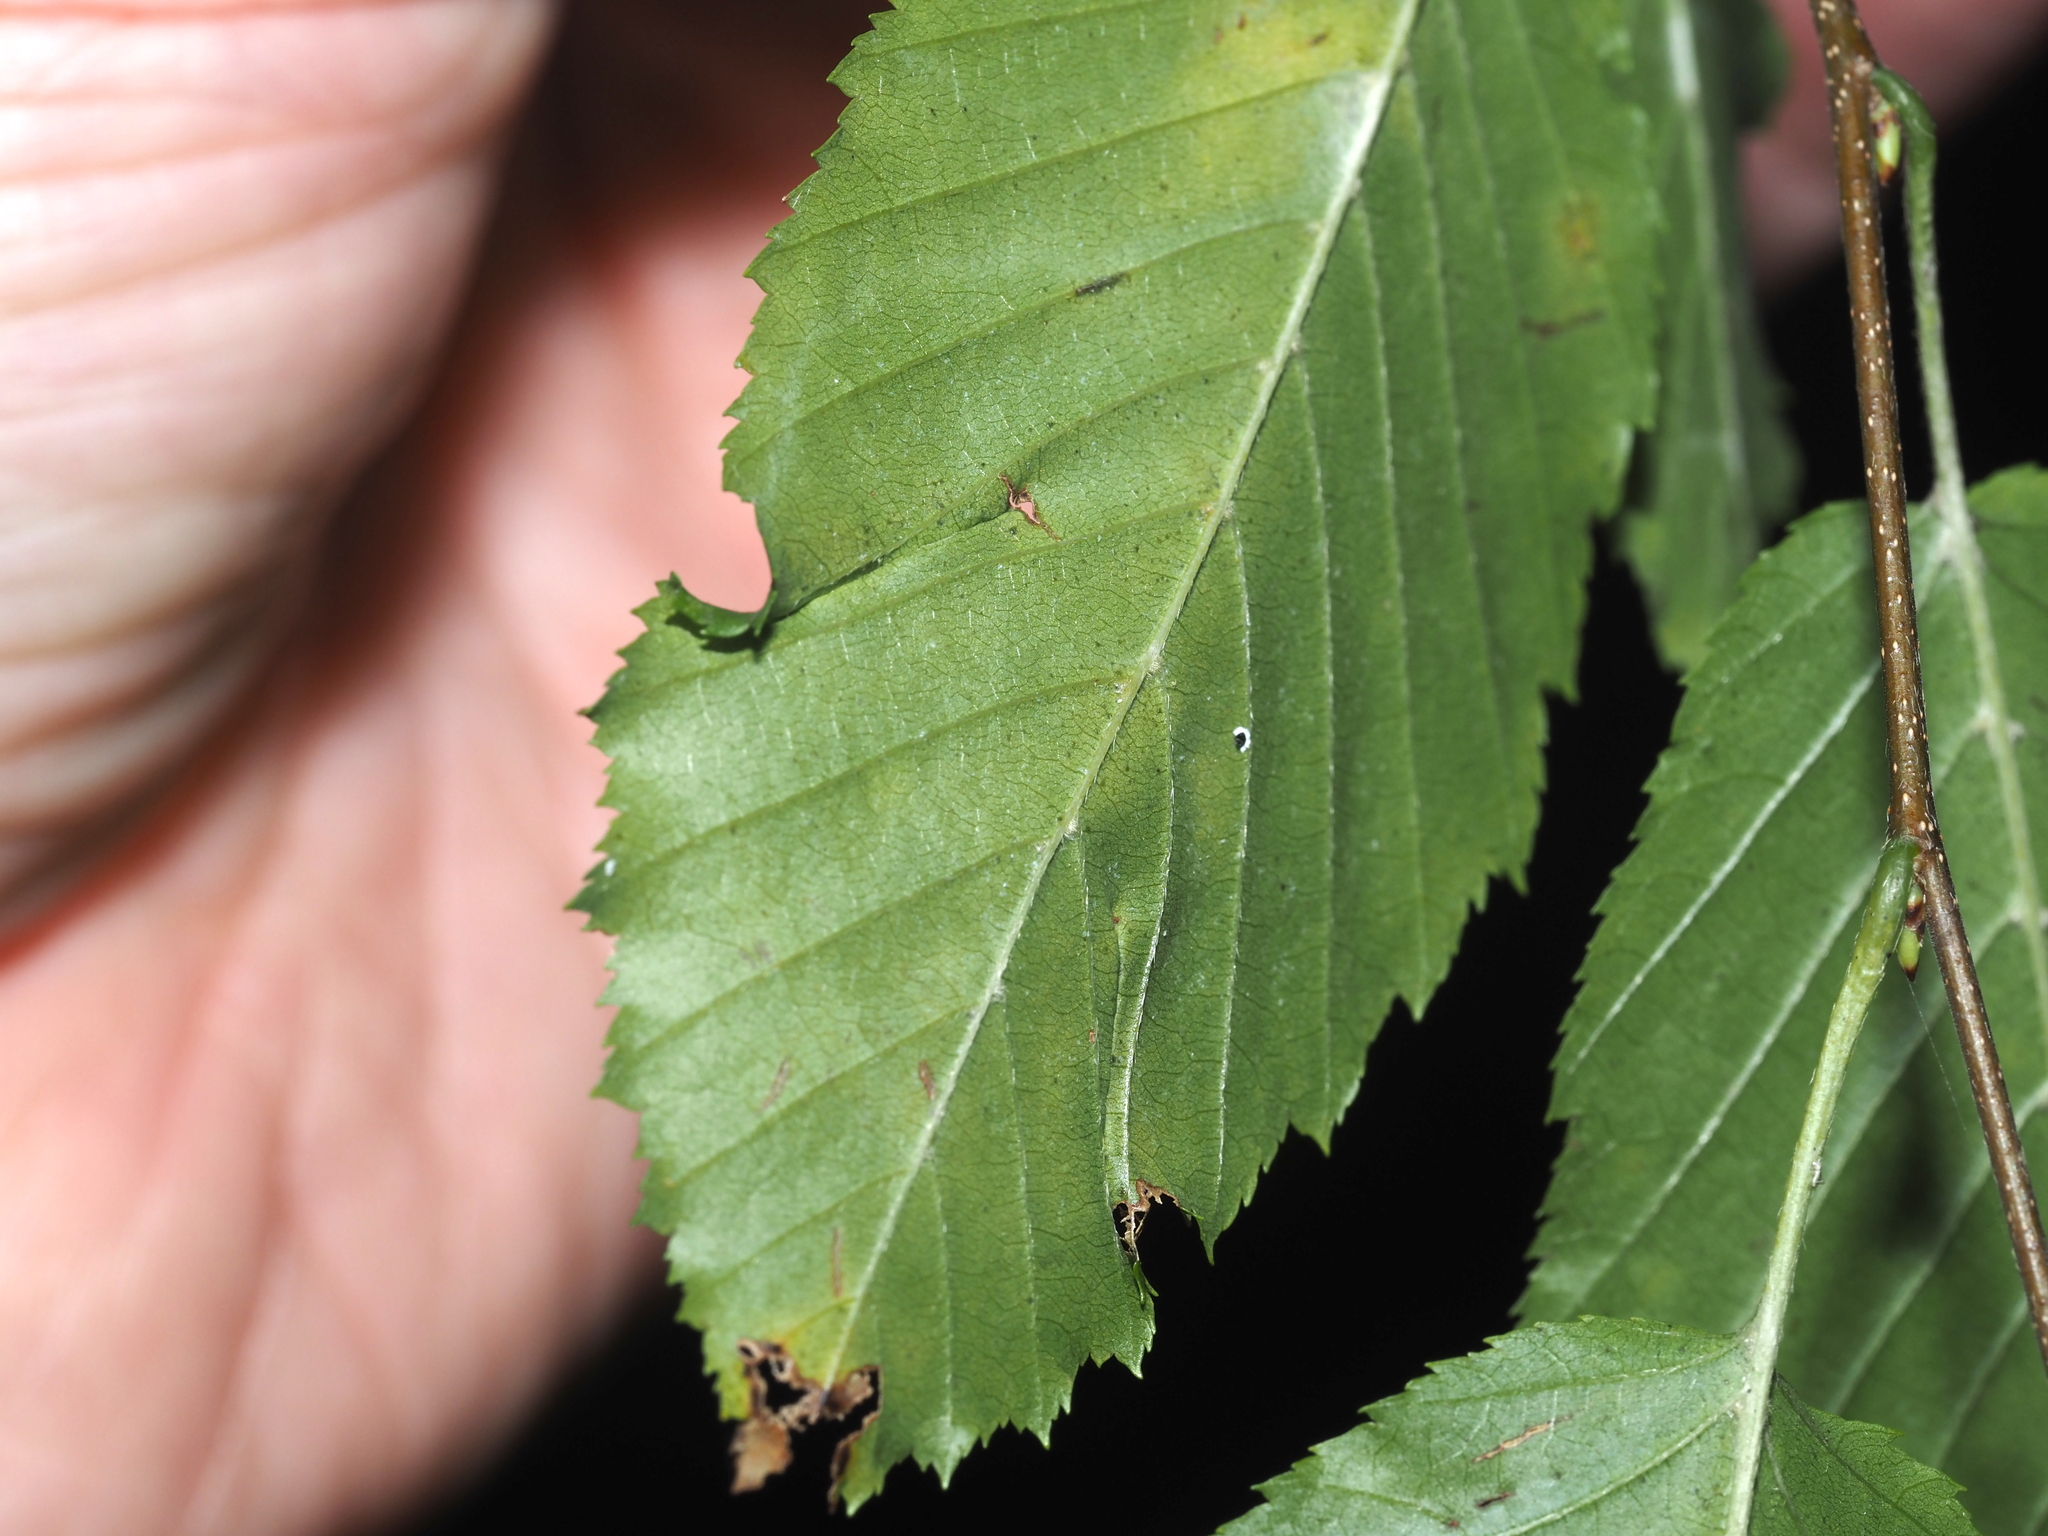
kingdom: Animalia
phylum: Arthropoda
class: Insecta
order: Diptera
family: Cecidomyiidae
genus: Dasineura
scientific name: Dasineura pudibunda
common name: Hornbeam leaf gall midge
